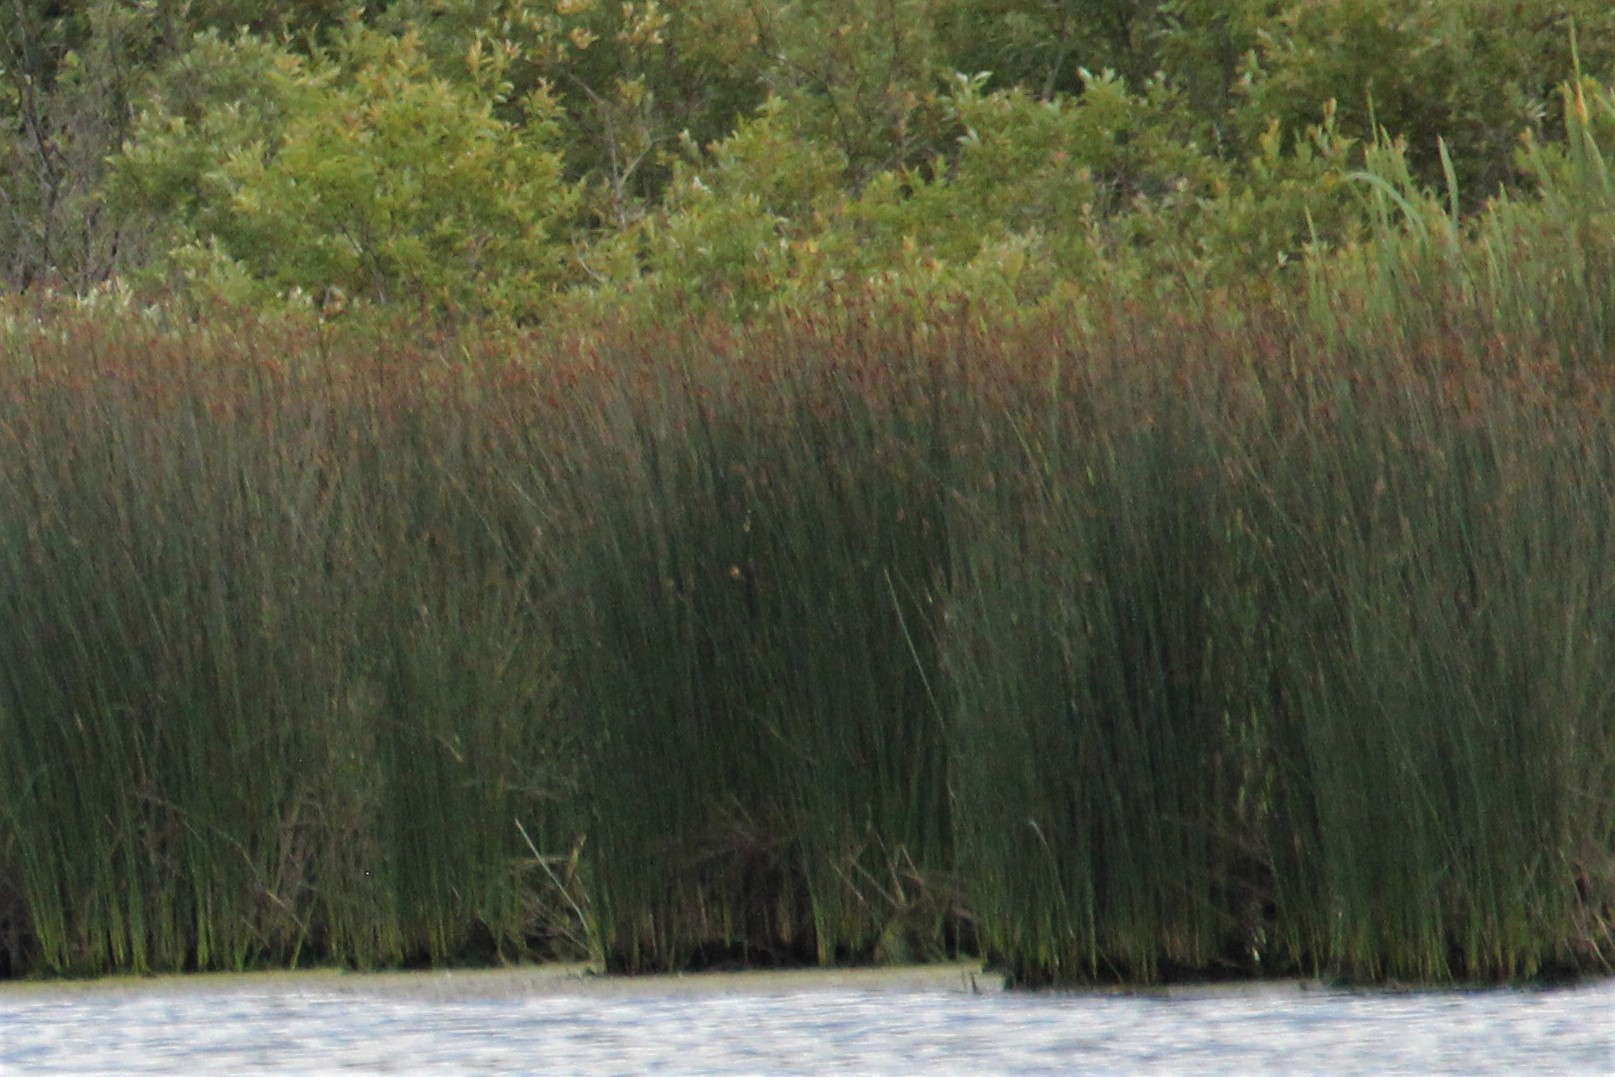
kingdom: Plantae
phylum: Tracheophyta
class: Liliopsida
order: Poales
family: Cyperaceae
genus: Schoenoplectus
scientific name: Schoenoplectus acutus
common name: Hardstem bulrush
